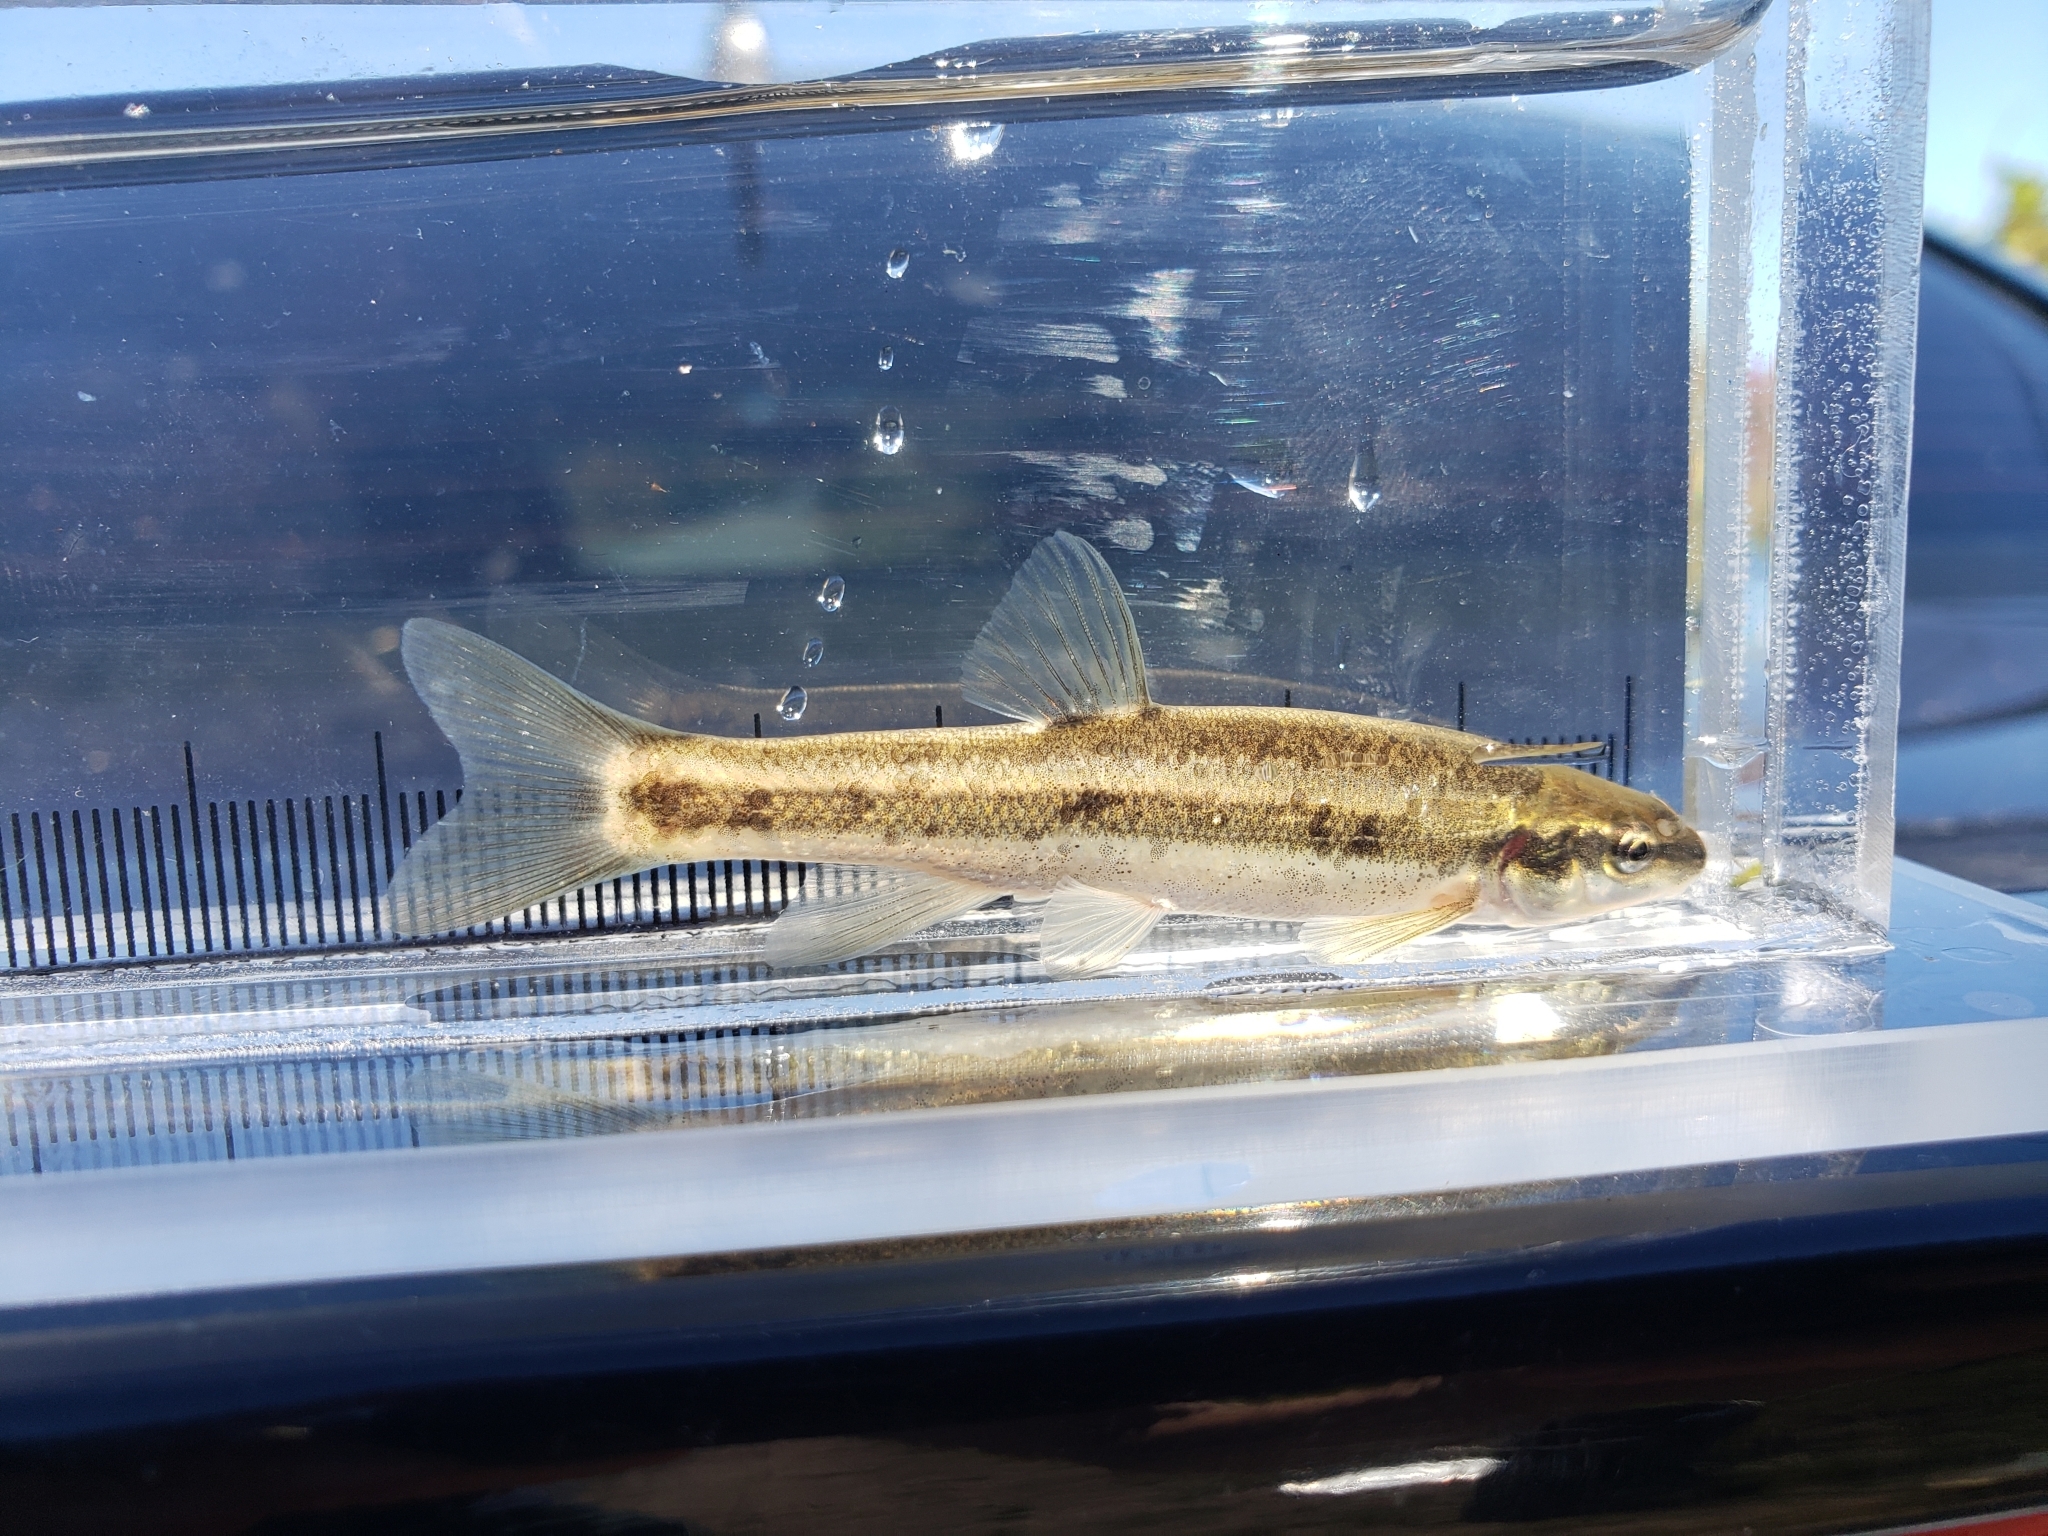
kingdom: Animalia
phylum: Chordata
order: Cypriniformes
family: Cyprinidae
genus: Rhinichthys
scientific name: Rhinichthys obtusus
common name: Western blacknose dace
